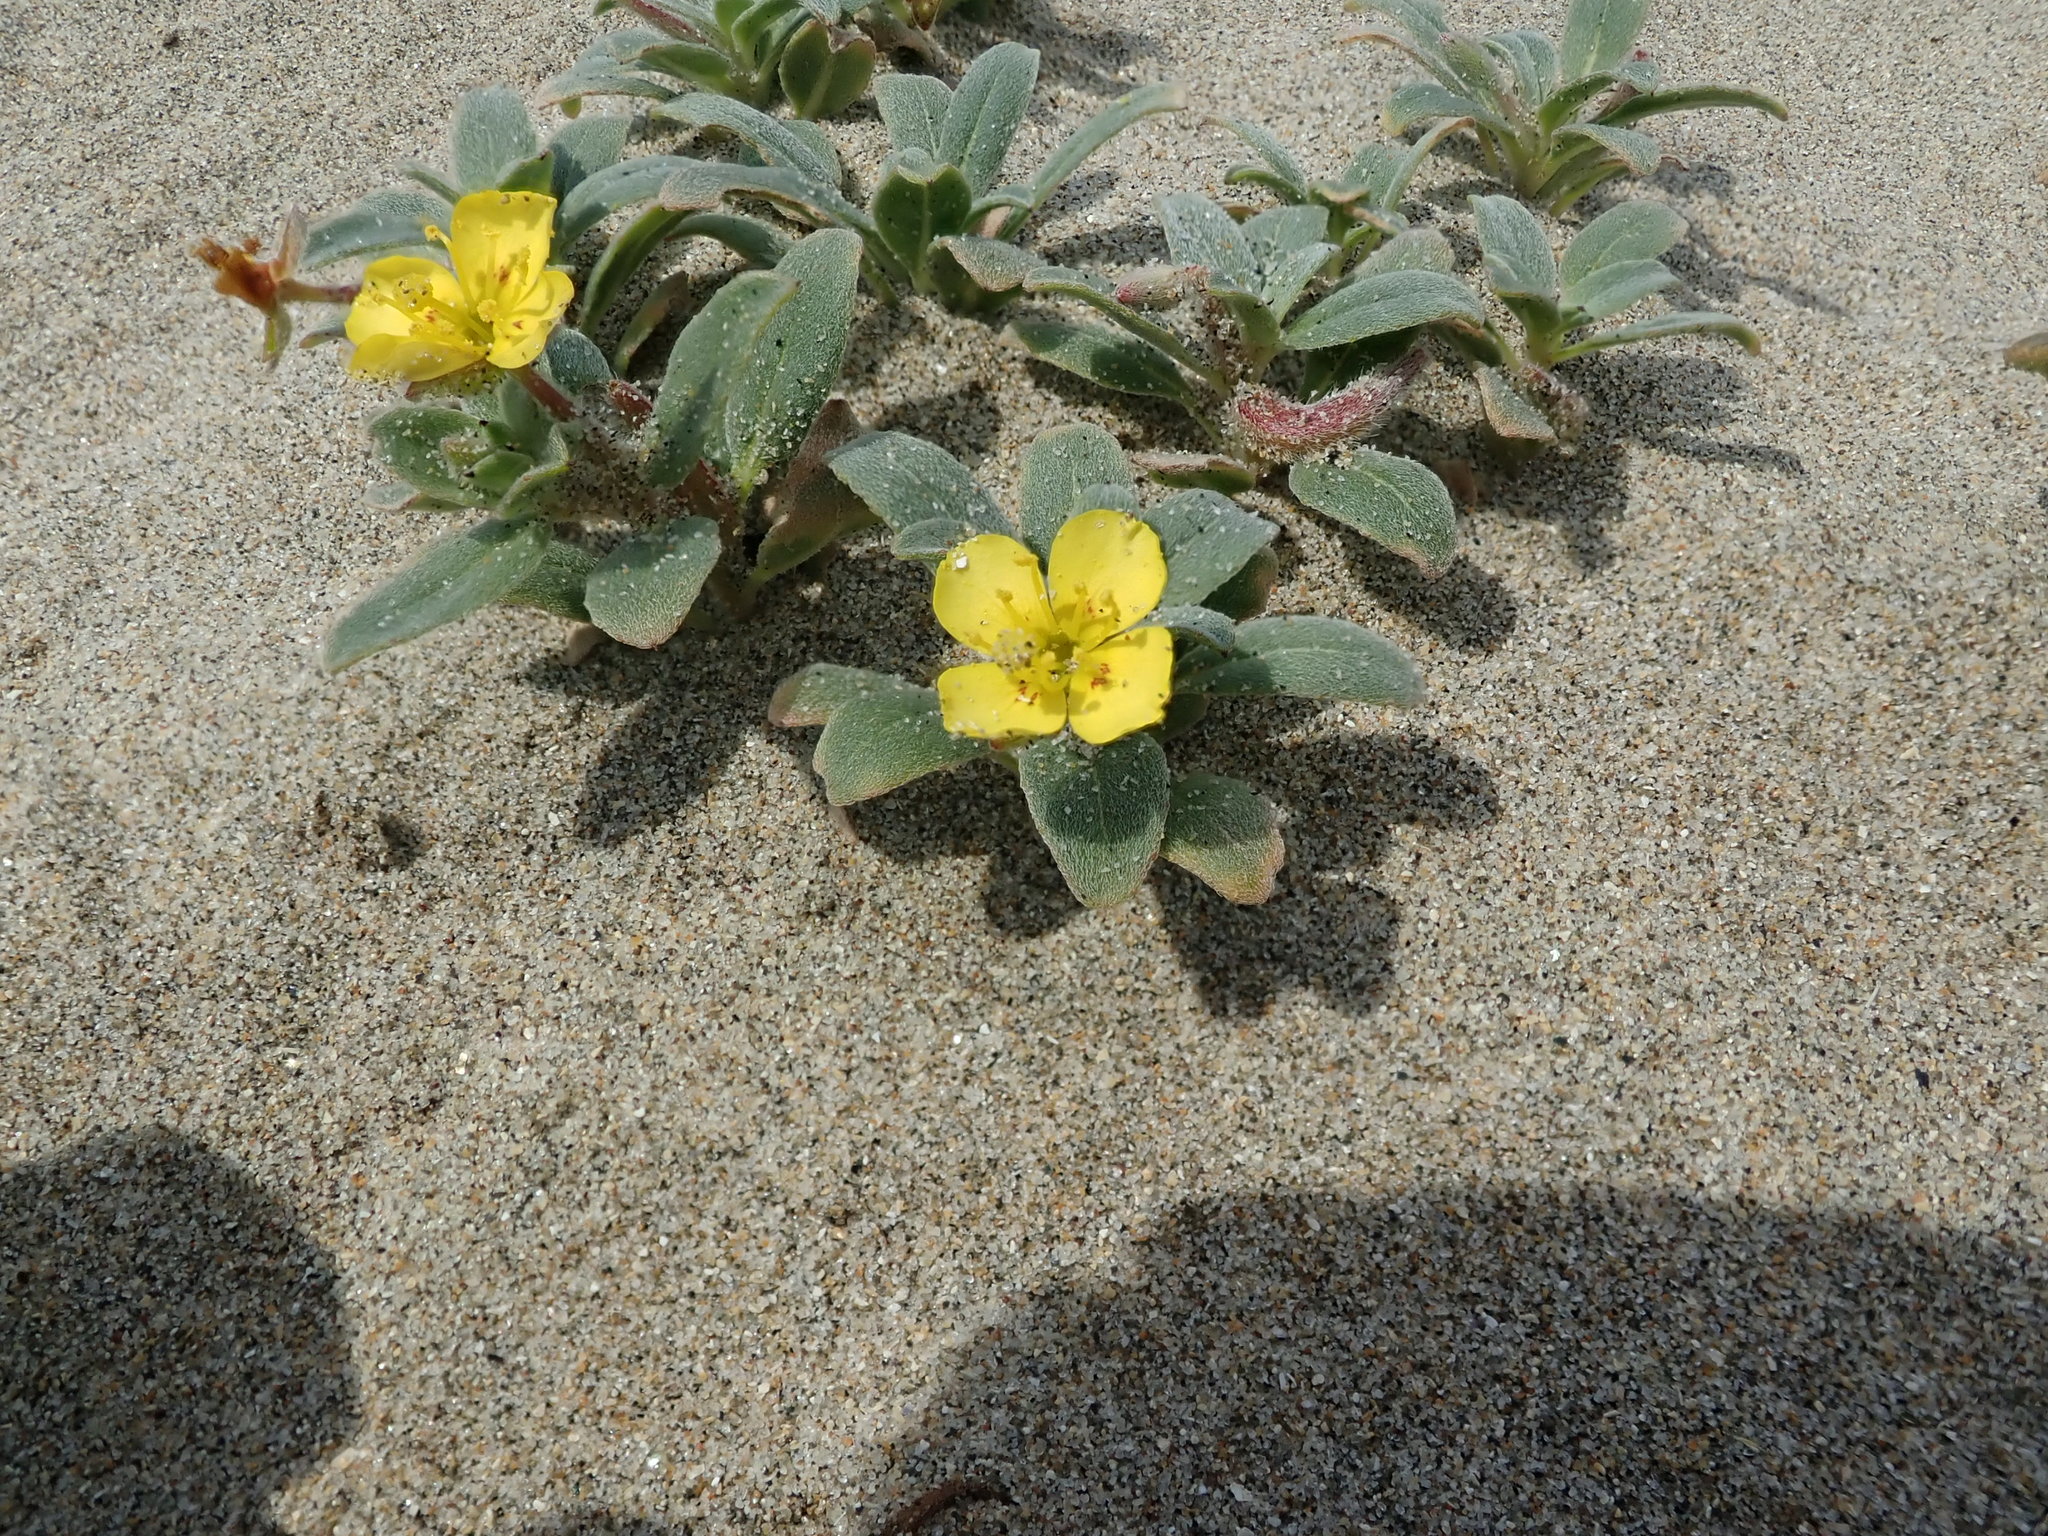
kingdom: Plantae
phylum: Tracheophyta
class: Magnoliopsida
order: Myrtales
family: Onagraceae
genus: Camissoniopsis
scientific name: Camissoniopsis cheiranthifolia
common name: Beach suncup
